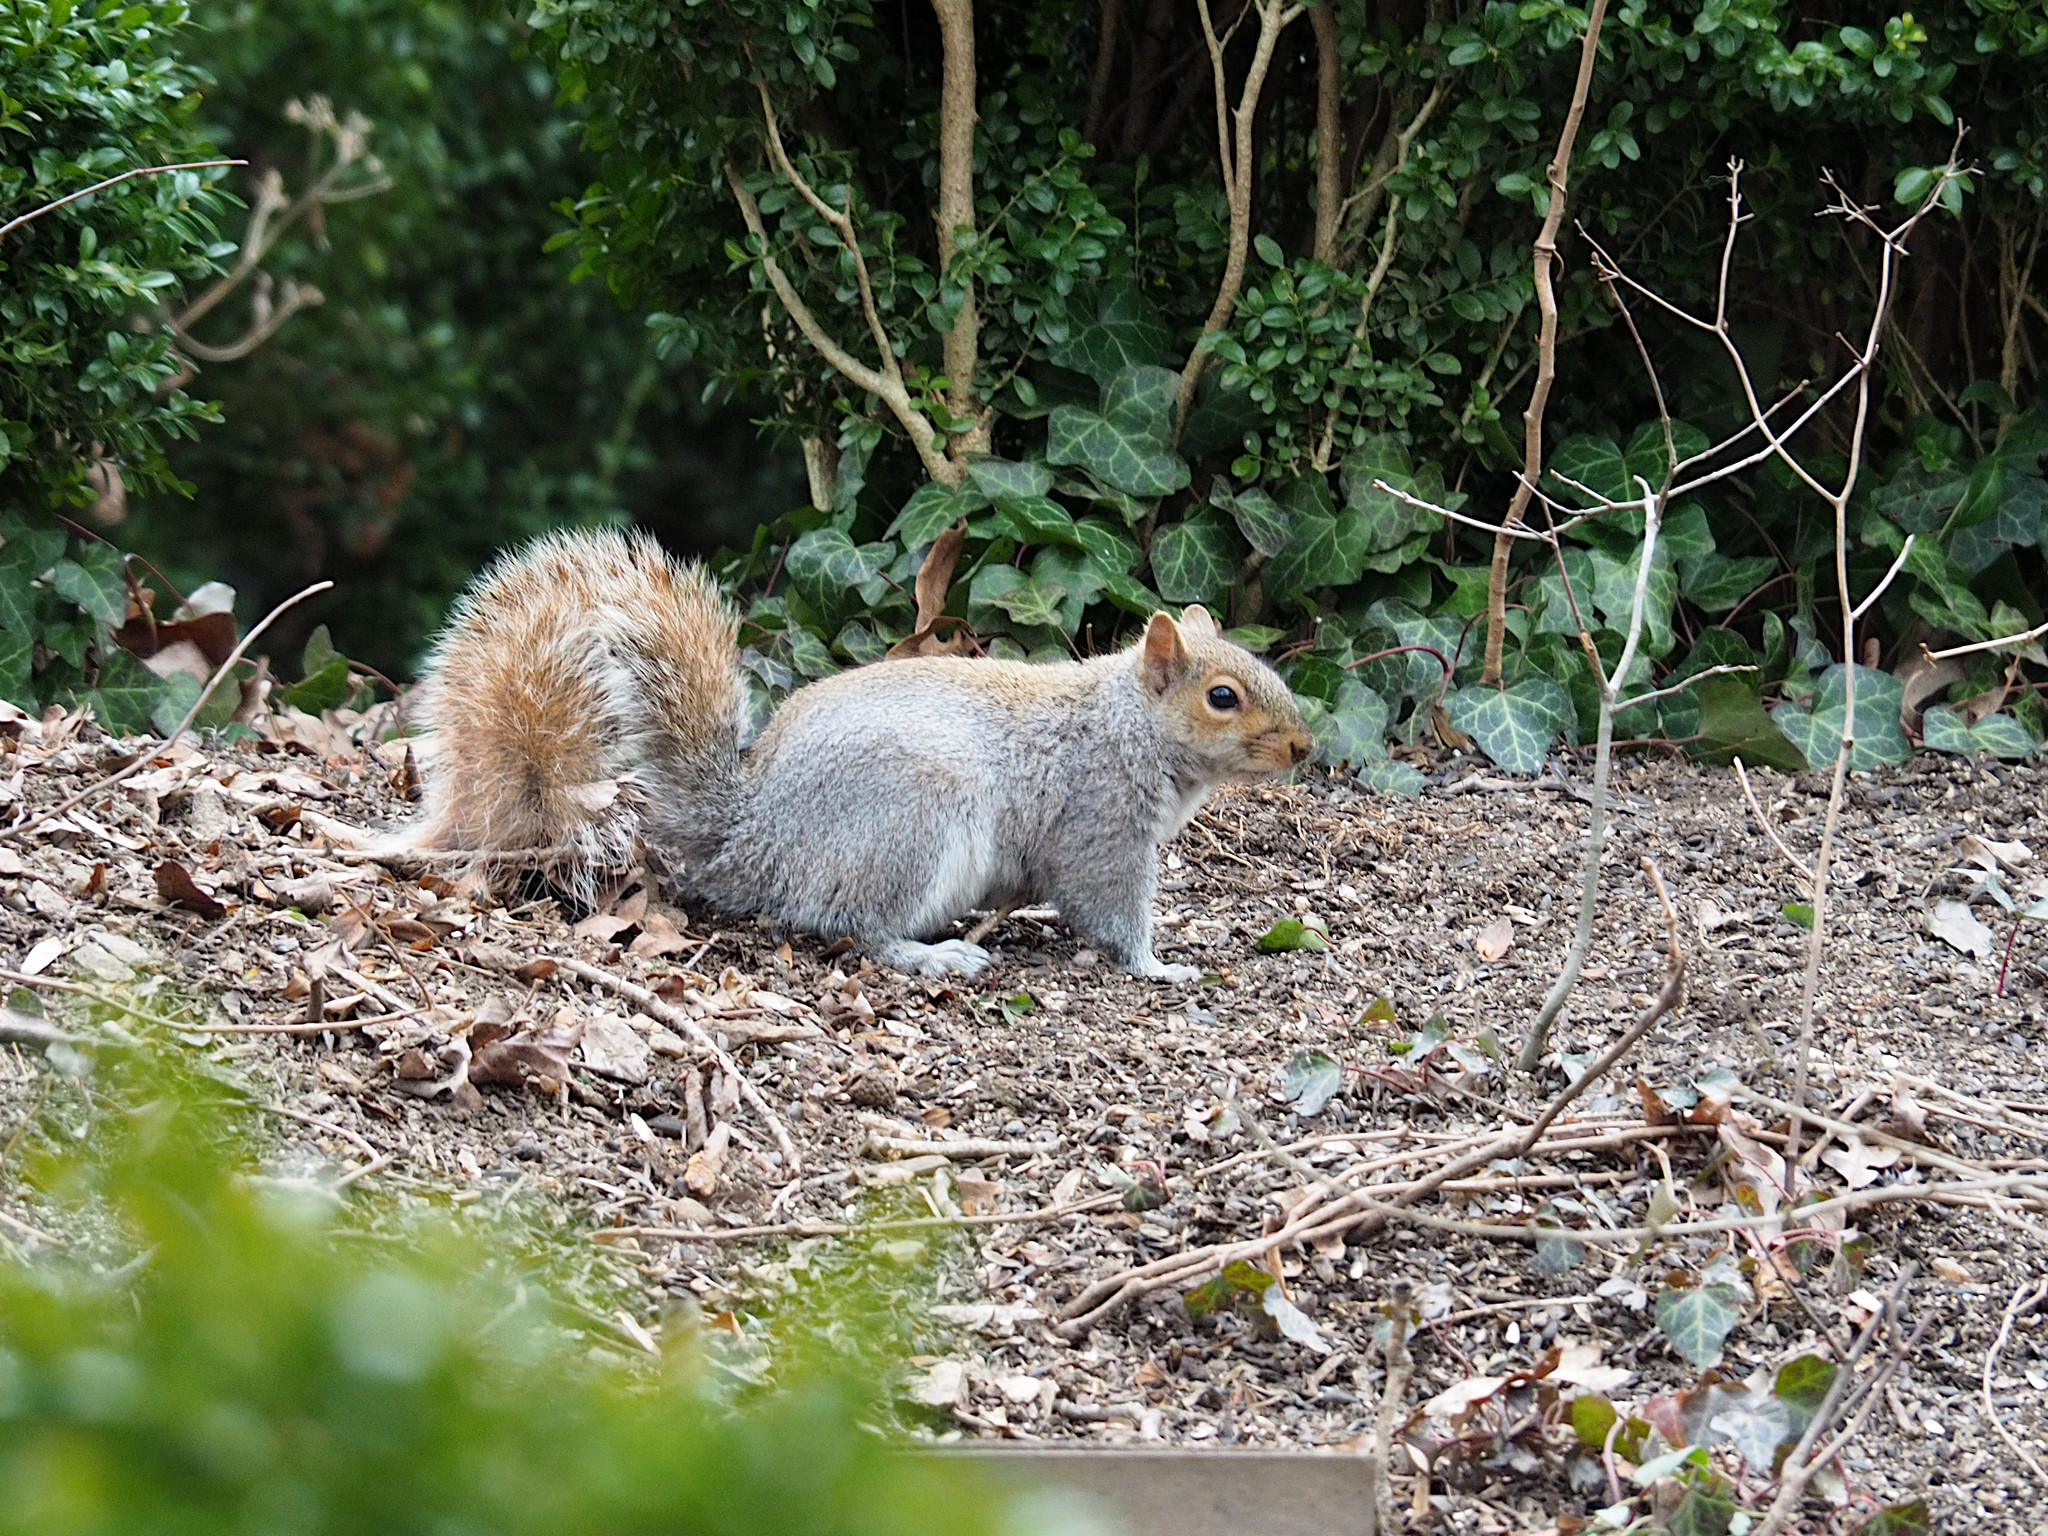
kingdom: Animalia
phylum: Chordata
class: Mammalia
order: Rodentia
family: Sciuridae
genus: Sciurus
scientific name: Sciurus carolinensis
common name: Eastern gray squirrel
